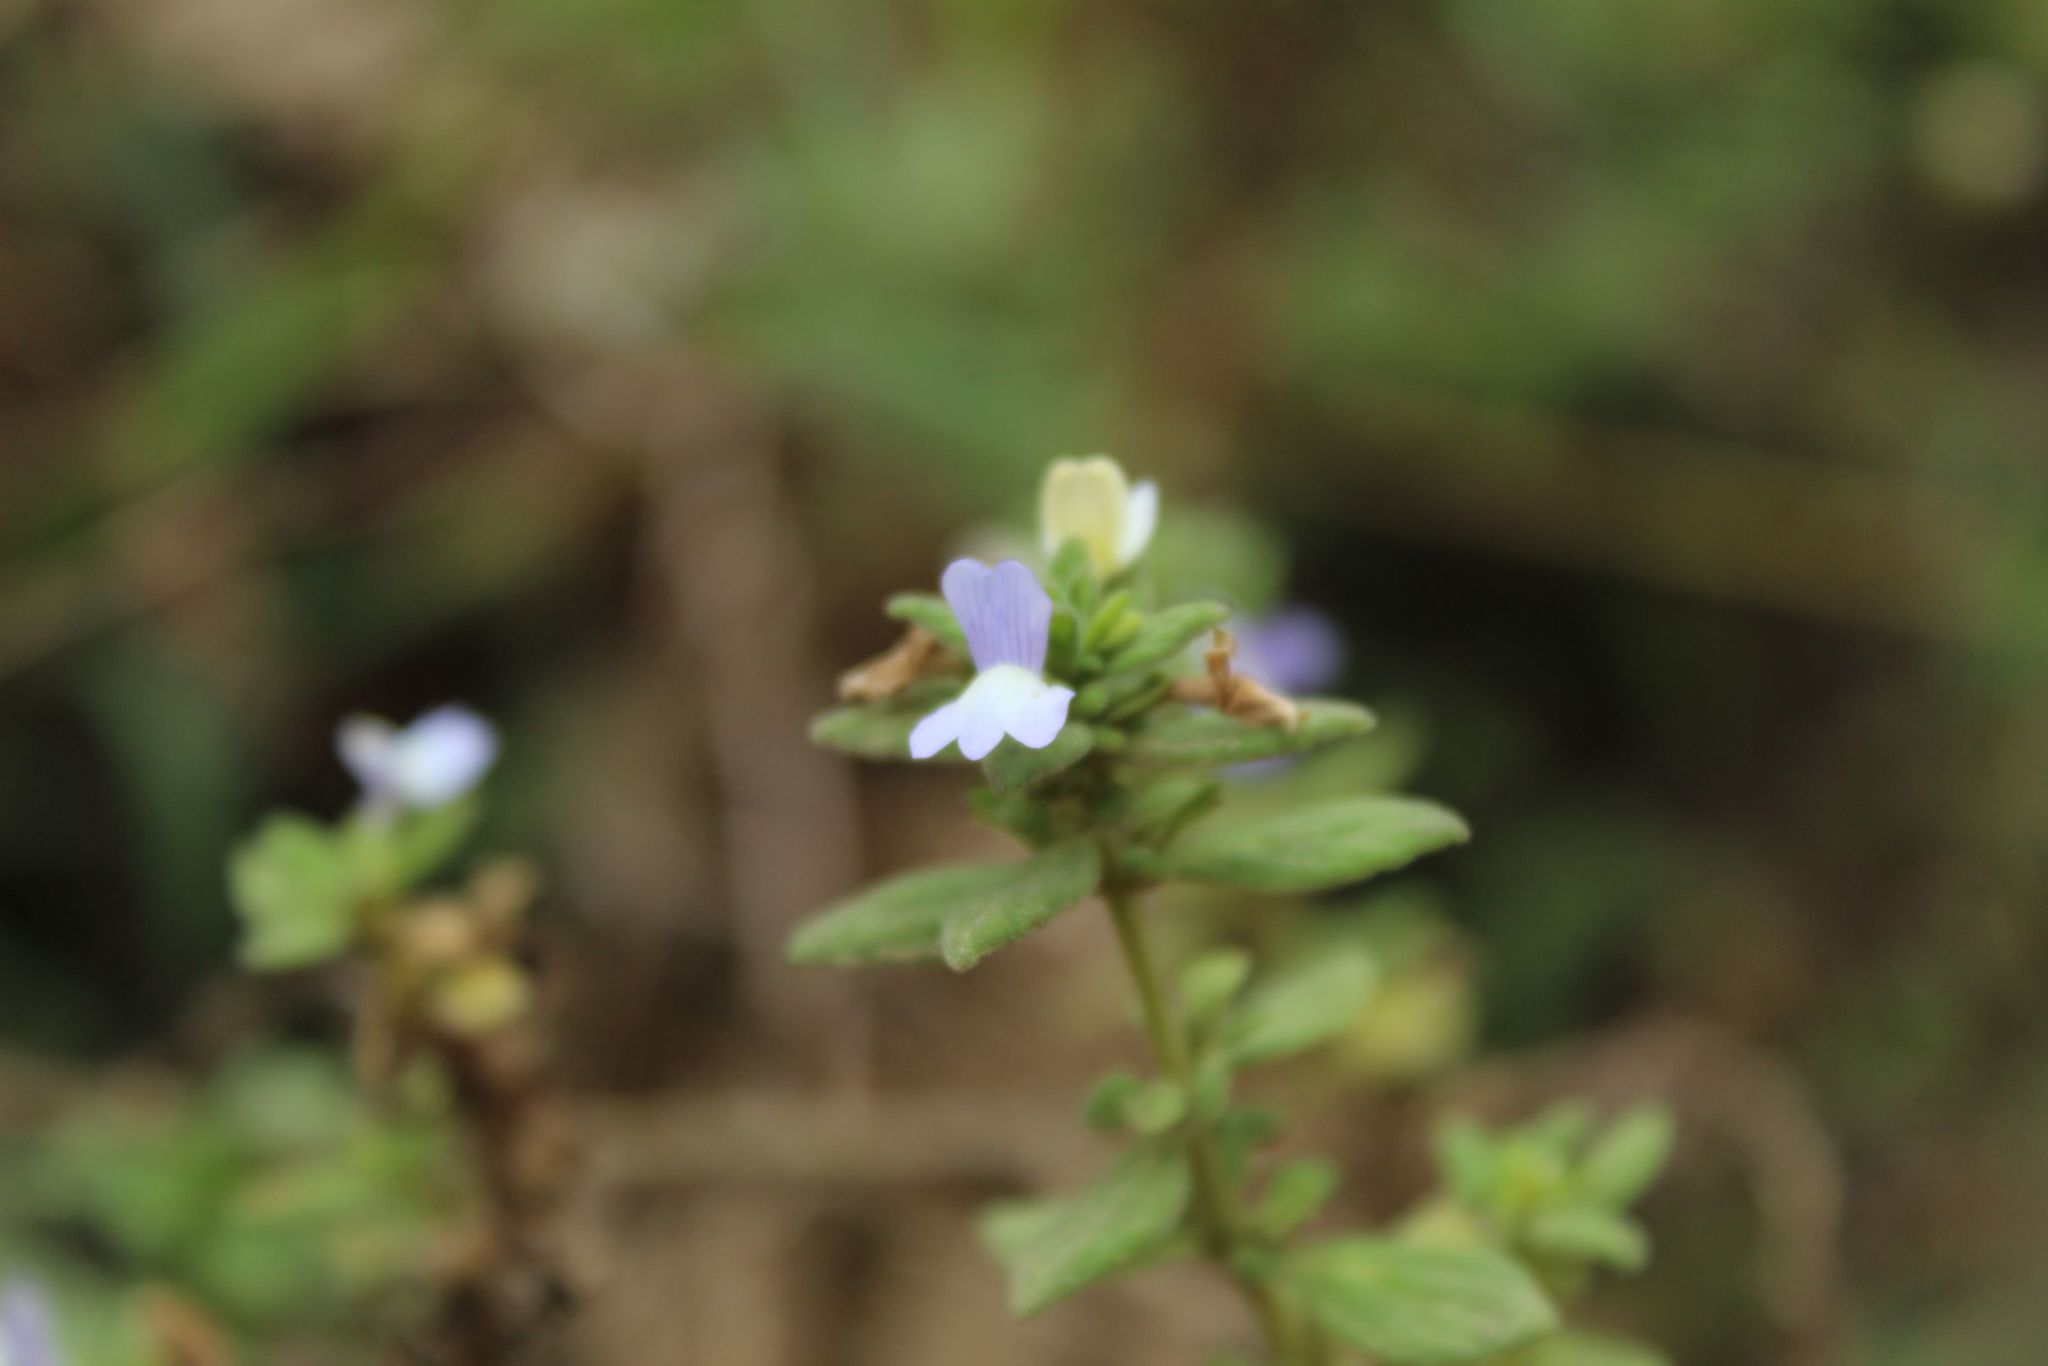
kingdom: Plantae
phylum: Tracheophyta
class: Magnoliopsida
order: Lamiales
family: Plantaginaceae
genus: Matourea
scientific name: Matourea erecta
